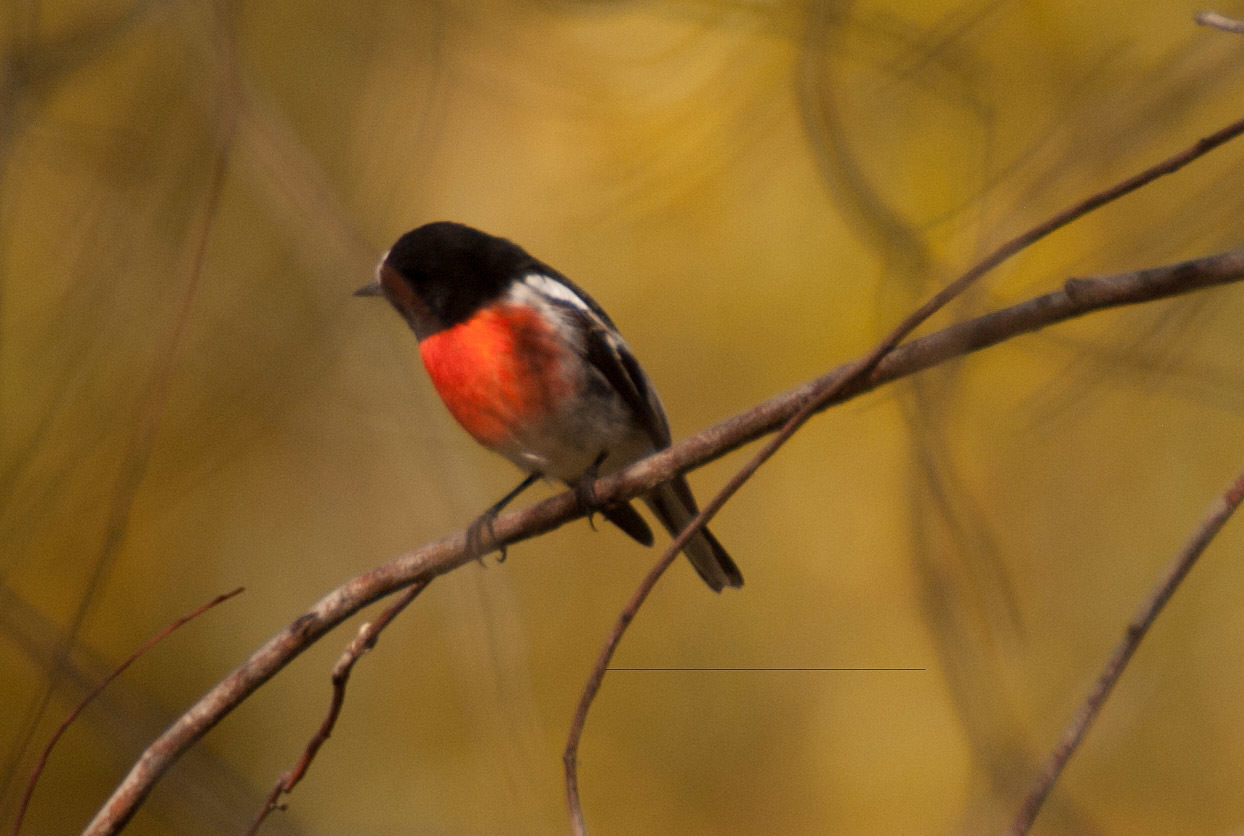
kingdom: Animalia
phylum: Chordata
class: Aves
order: Passeriformes
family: Petroicidae
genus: Petroica
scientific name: Petroica boodang
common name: Scarlet robin
